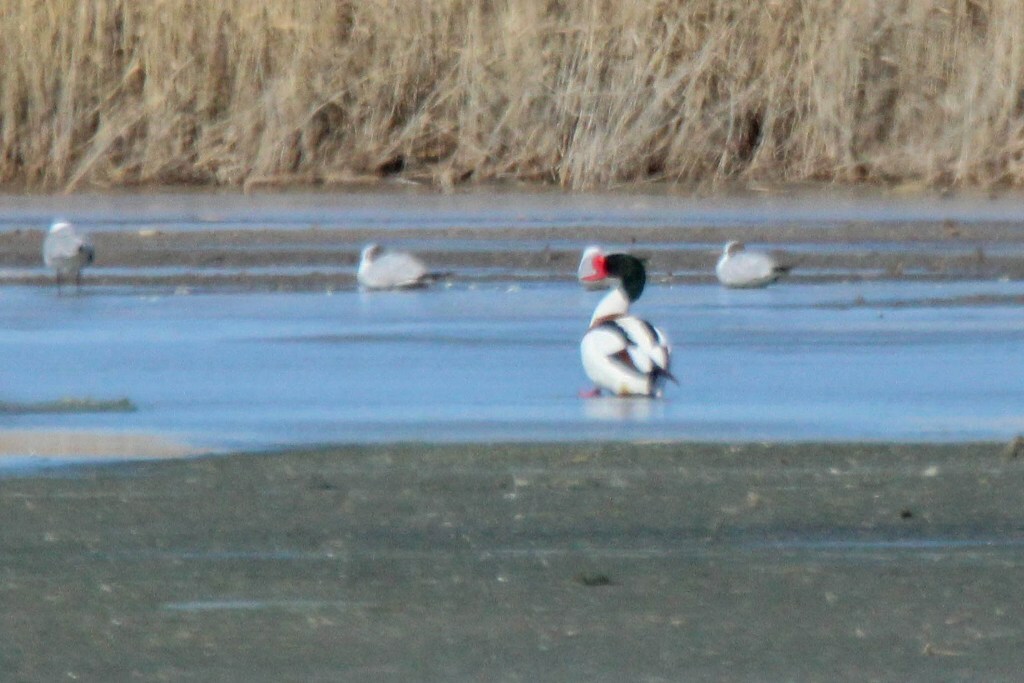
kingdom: Animalia
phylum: Chordata
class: Aves
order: Anseriformes
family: Anatidae
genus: Tadorna
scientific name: Tadorna tadorna
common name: Common shelduck
